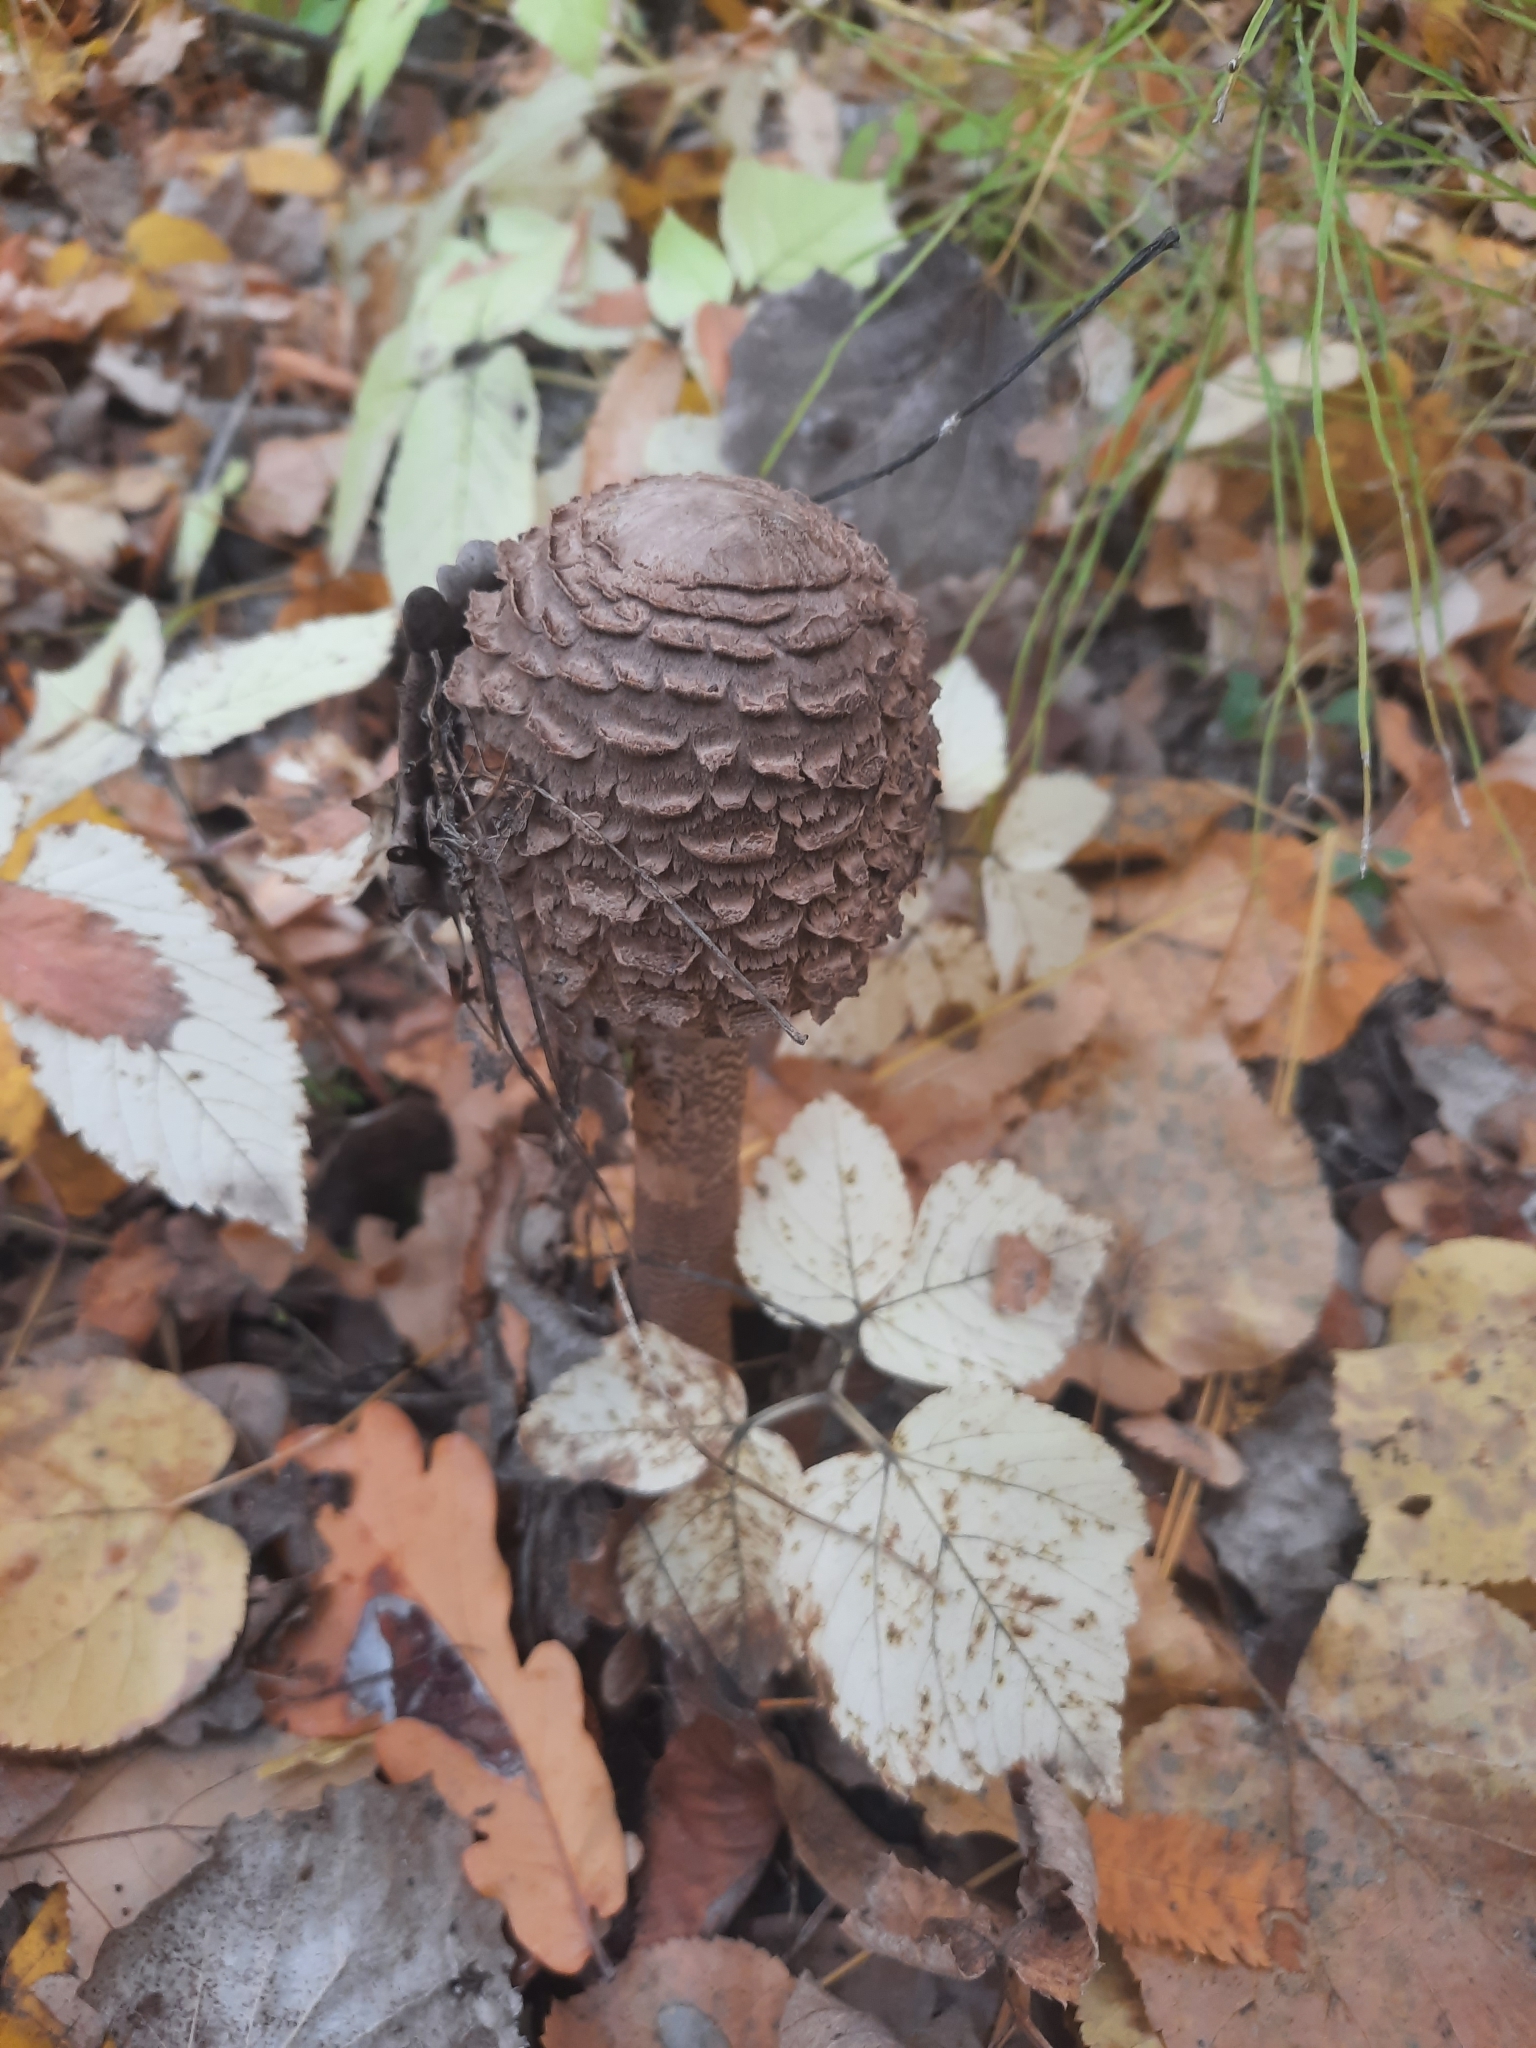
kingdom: Fungi
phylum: Basidiomycota
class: Agaricomycetes
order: Agaricales
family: Agaricaceae
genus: Macrolepiota
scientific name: Macrolepiota procera
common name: Parasol
